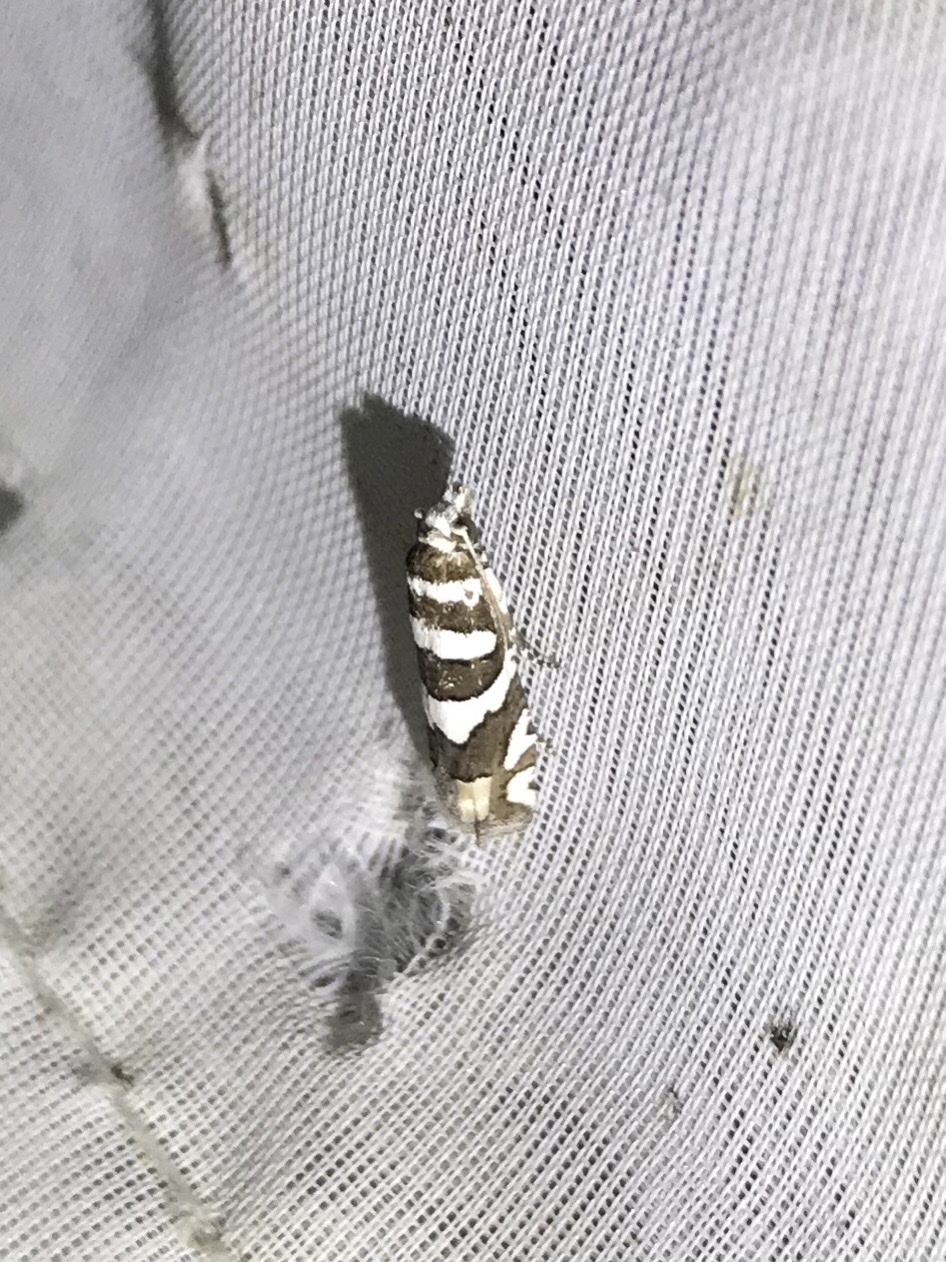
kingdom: Animalia
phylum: Arthropoda
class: Insecta
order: Lepidoptera
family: Tortricidae
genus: Pelochrista
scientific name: Pelochrista robinsonana
